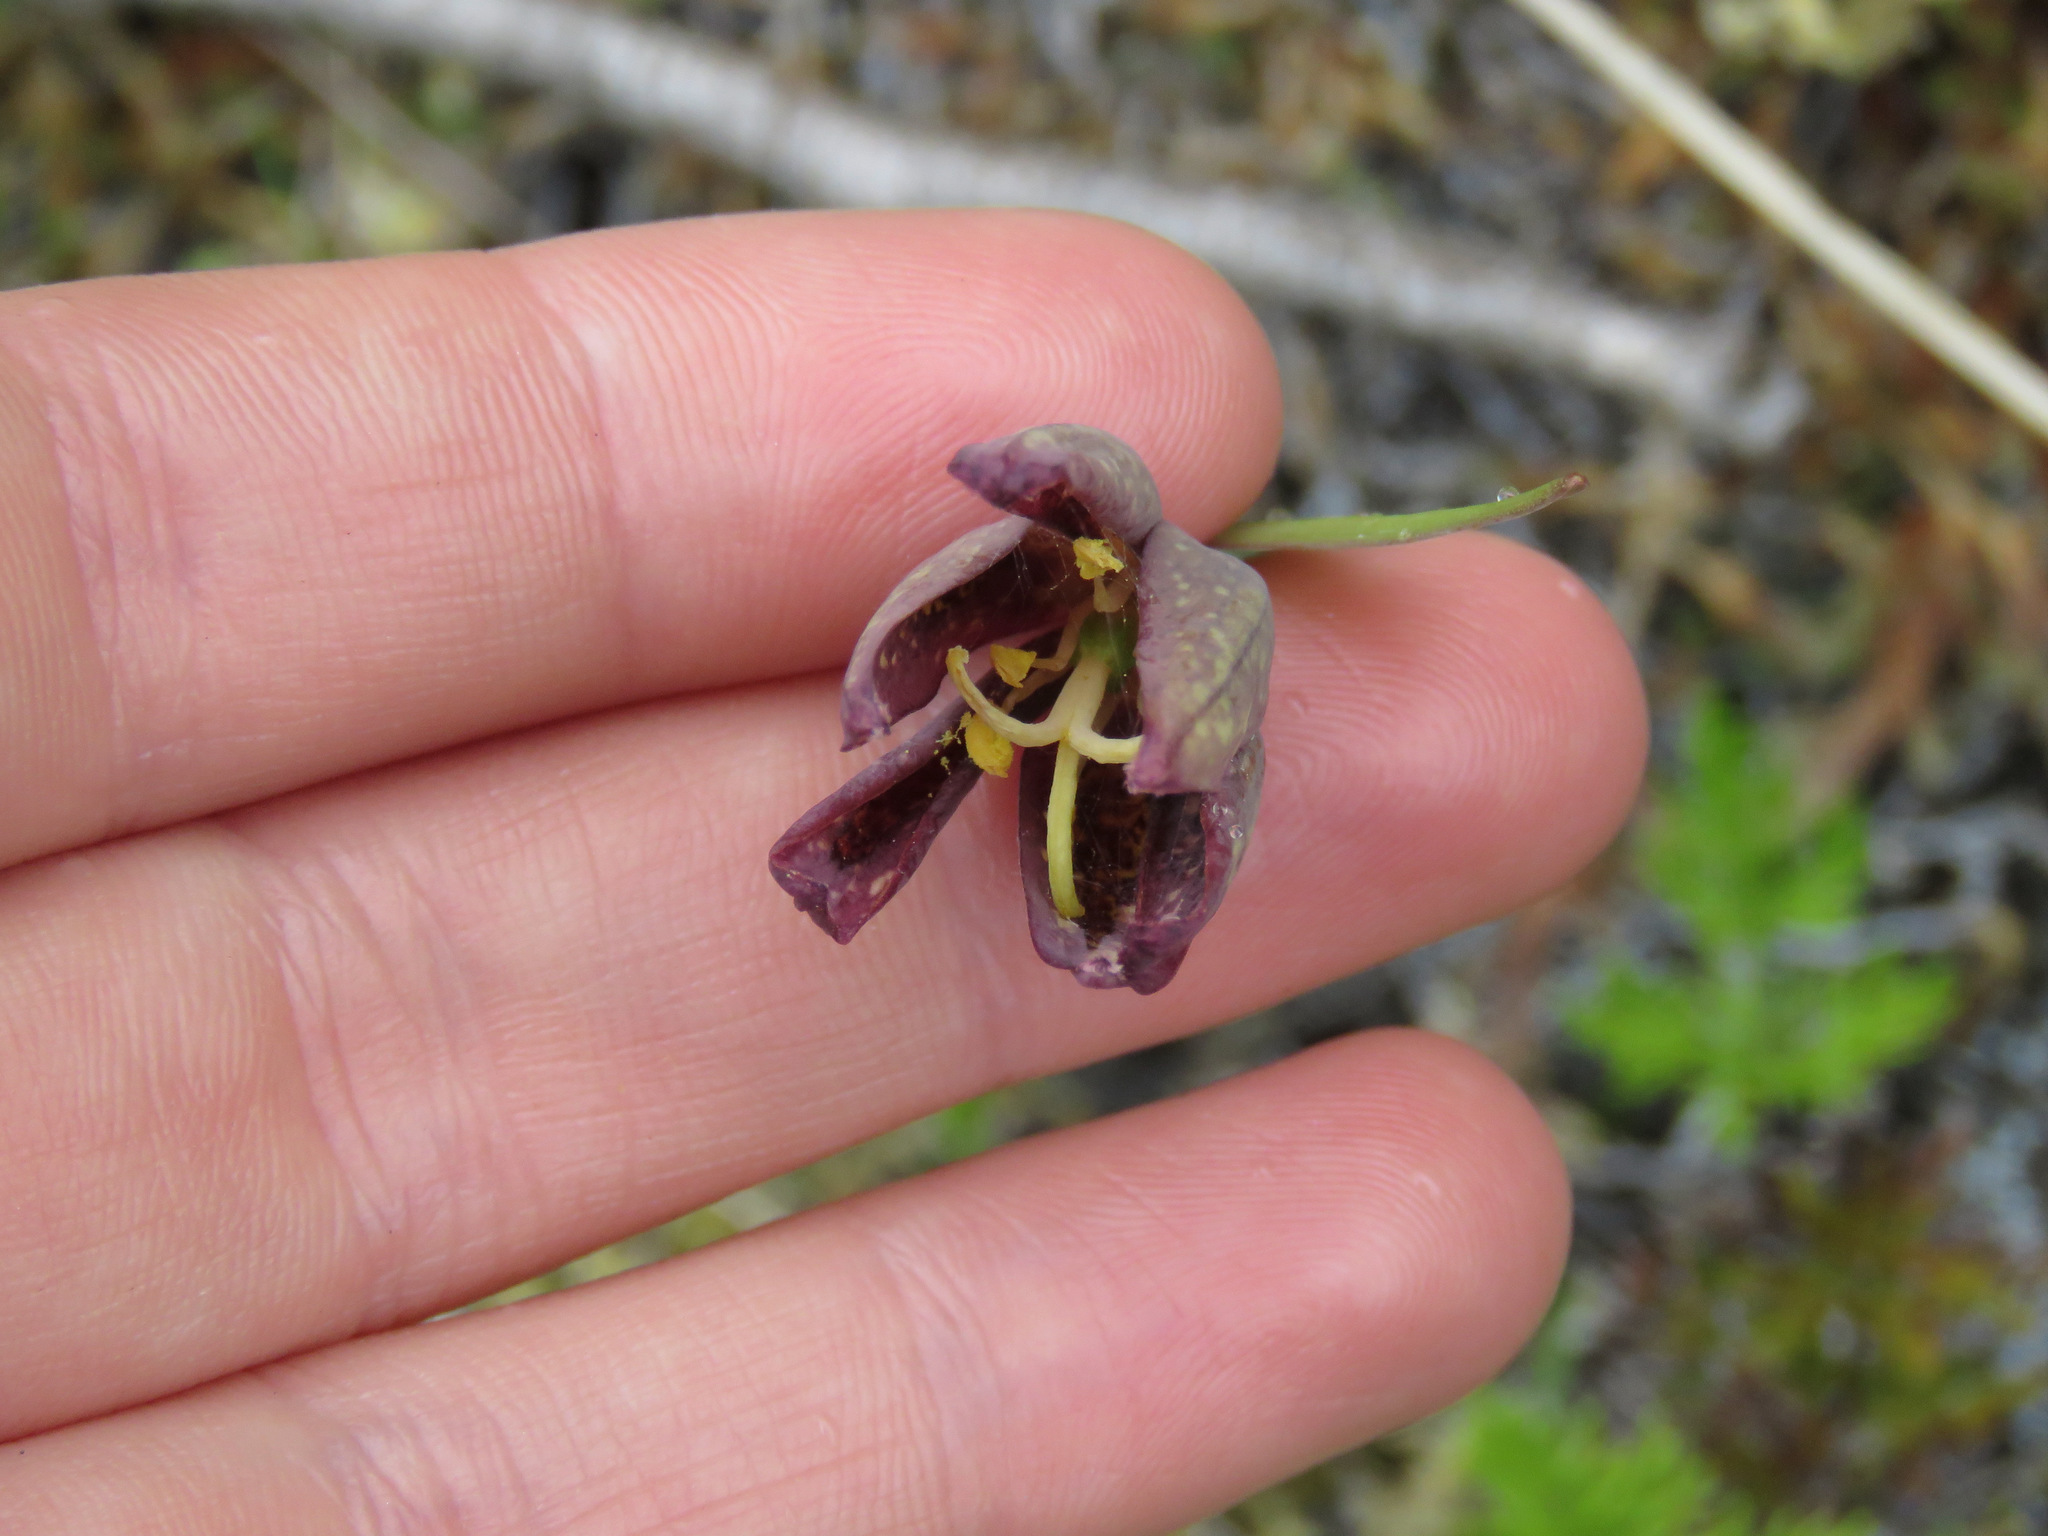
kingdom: Plantae
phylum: Tracheophyta
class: Liliopsida
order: Liliales
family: Liliaceae
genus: Fritillaria
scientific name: Fritillaria affinis
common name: Ojai fritillary
